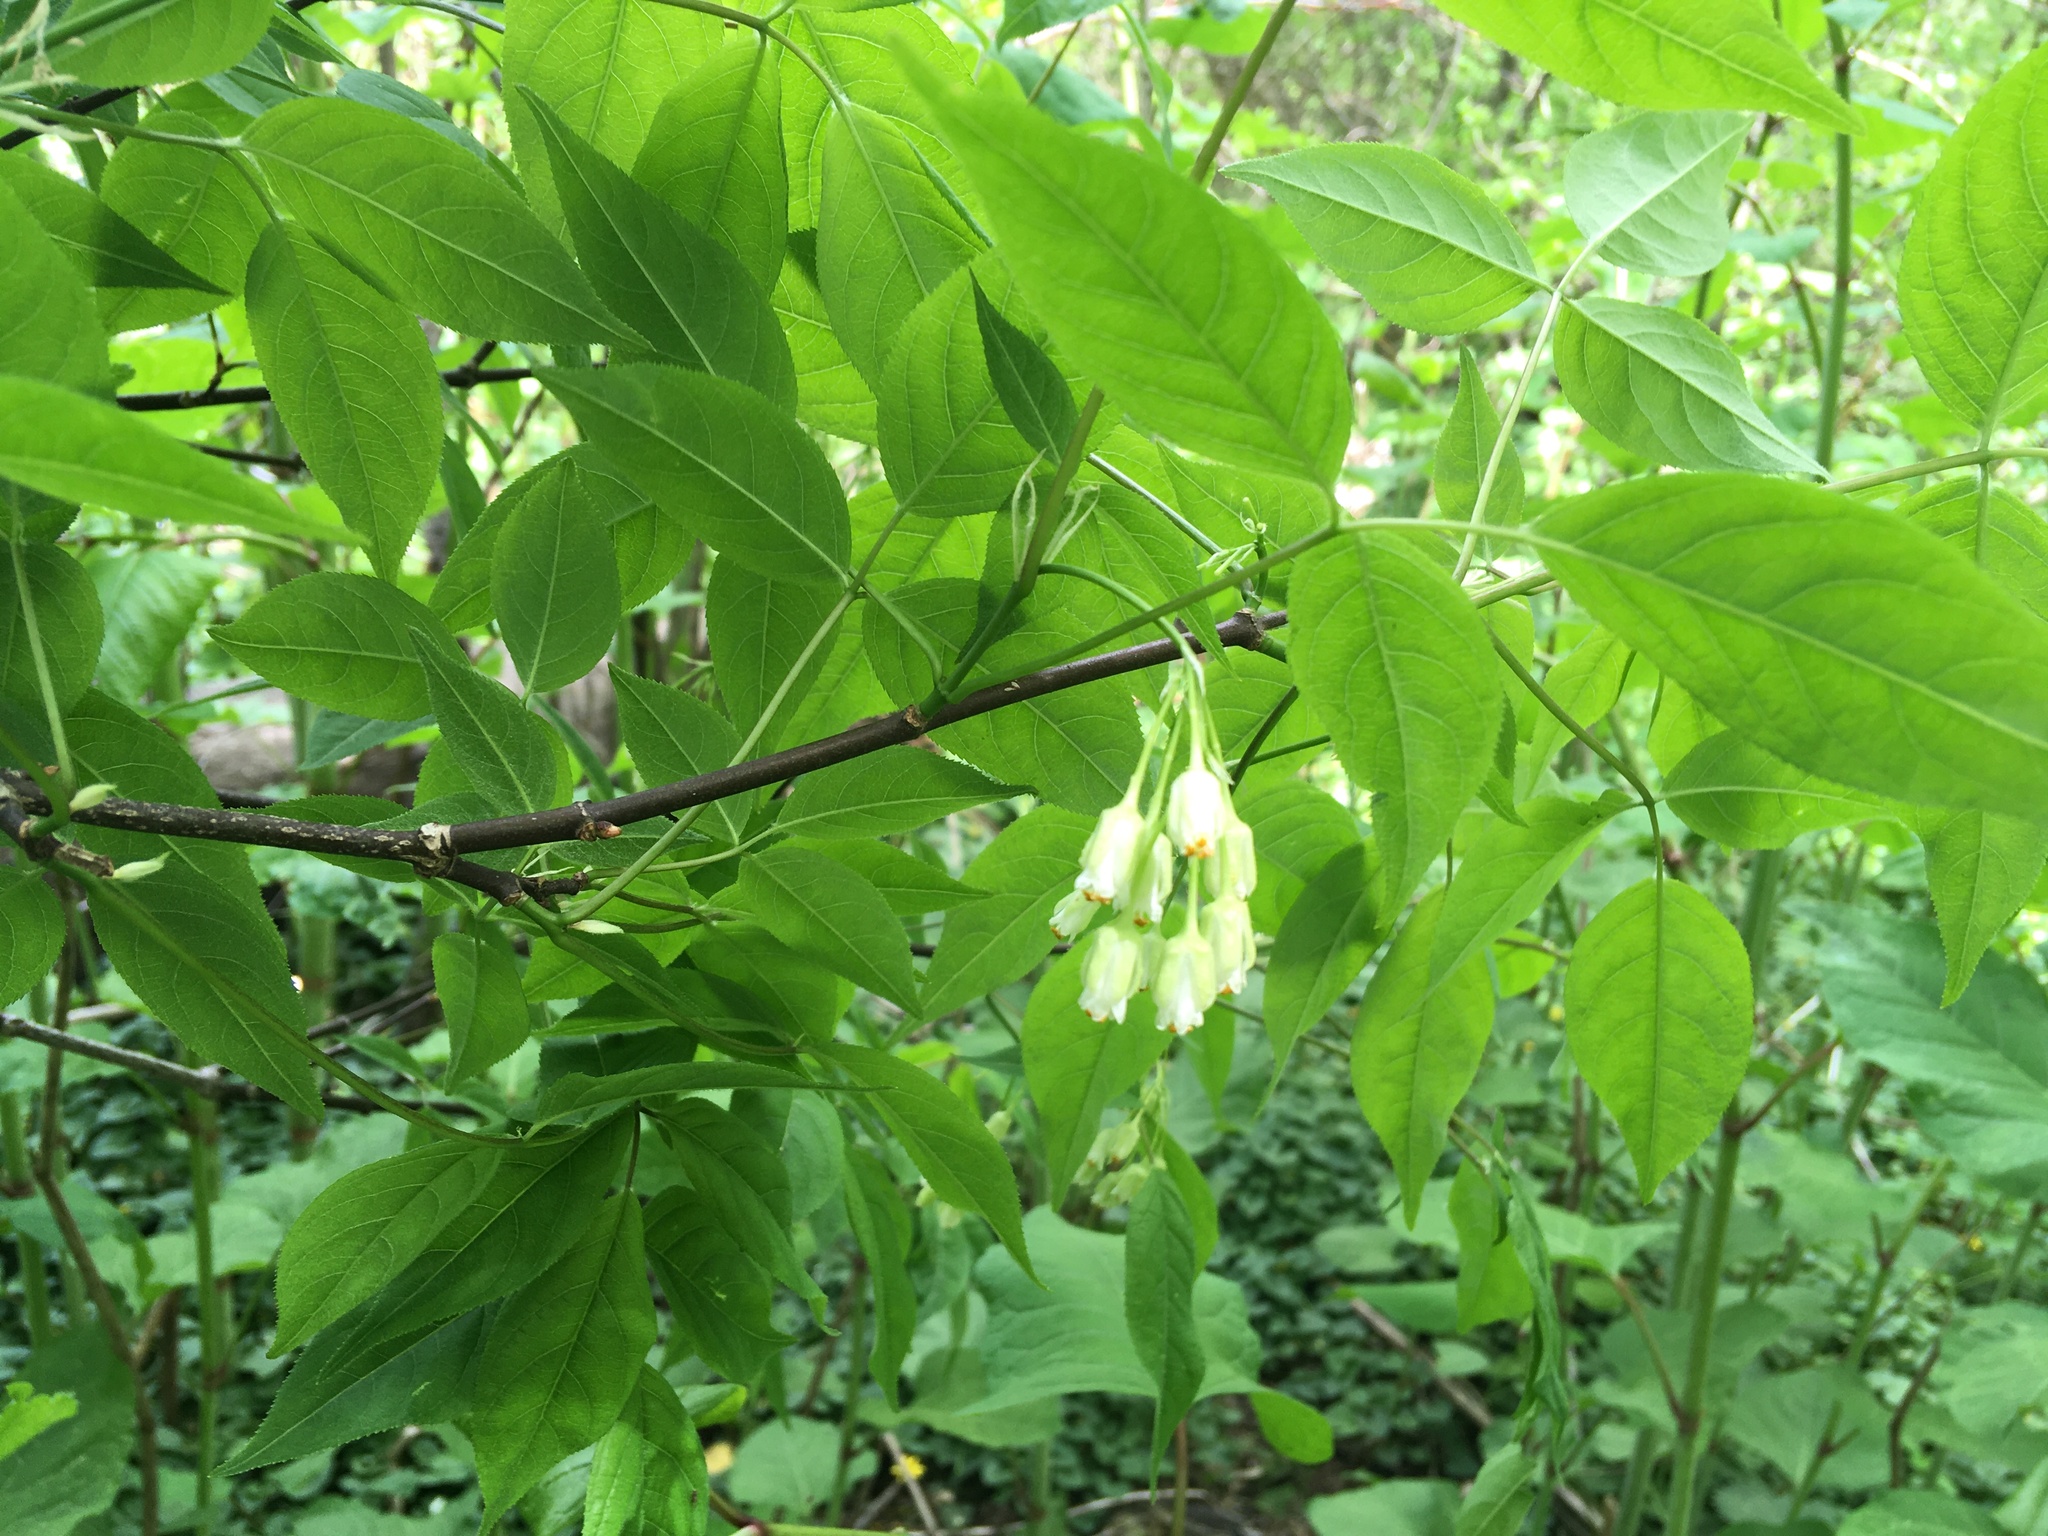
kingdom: Plantae
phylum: Tracheophyta
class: Magnoliopsida
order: Crossosomatales
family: Staphyleaceae
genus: Staphylea
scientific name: Staphylea trifolia
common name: American bladdernut
